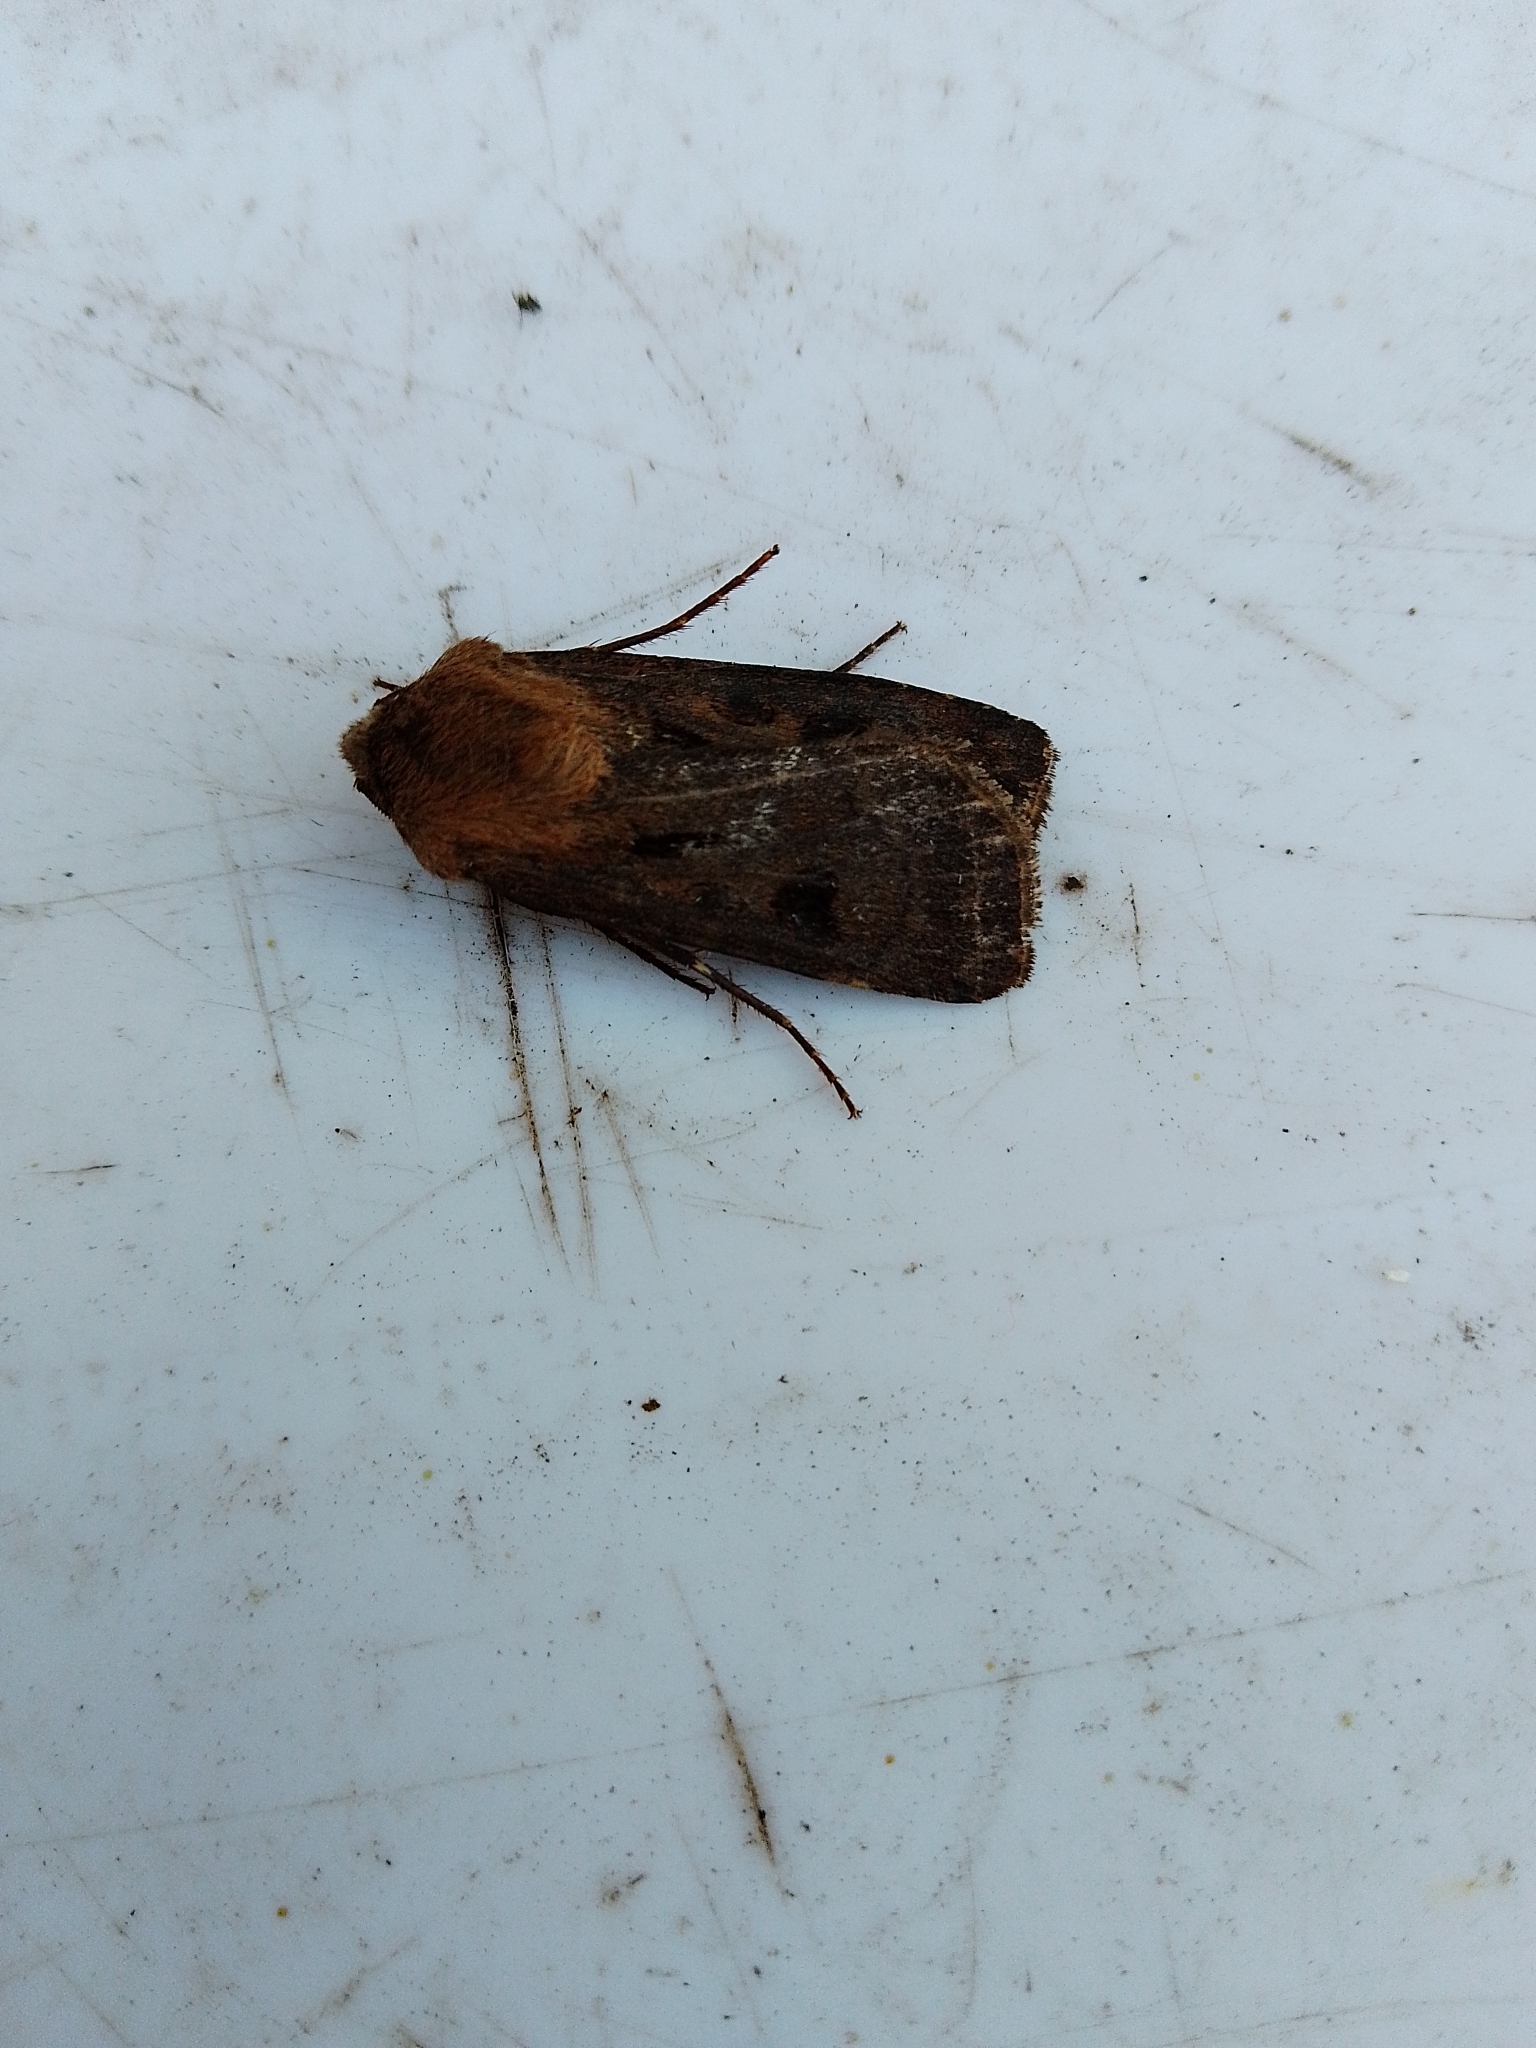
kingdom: Animalia
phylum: Arthropoda
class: Insecta
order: Lepidoptera
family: Noctuidae
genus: Agrotis
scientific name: Agrotis exclamationis
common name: Heart and dart
